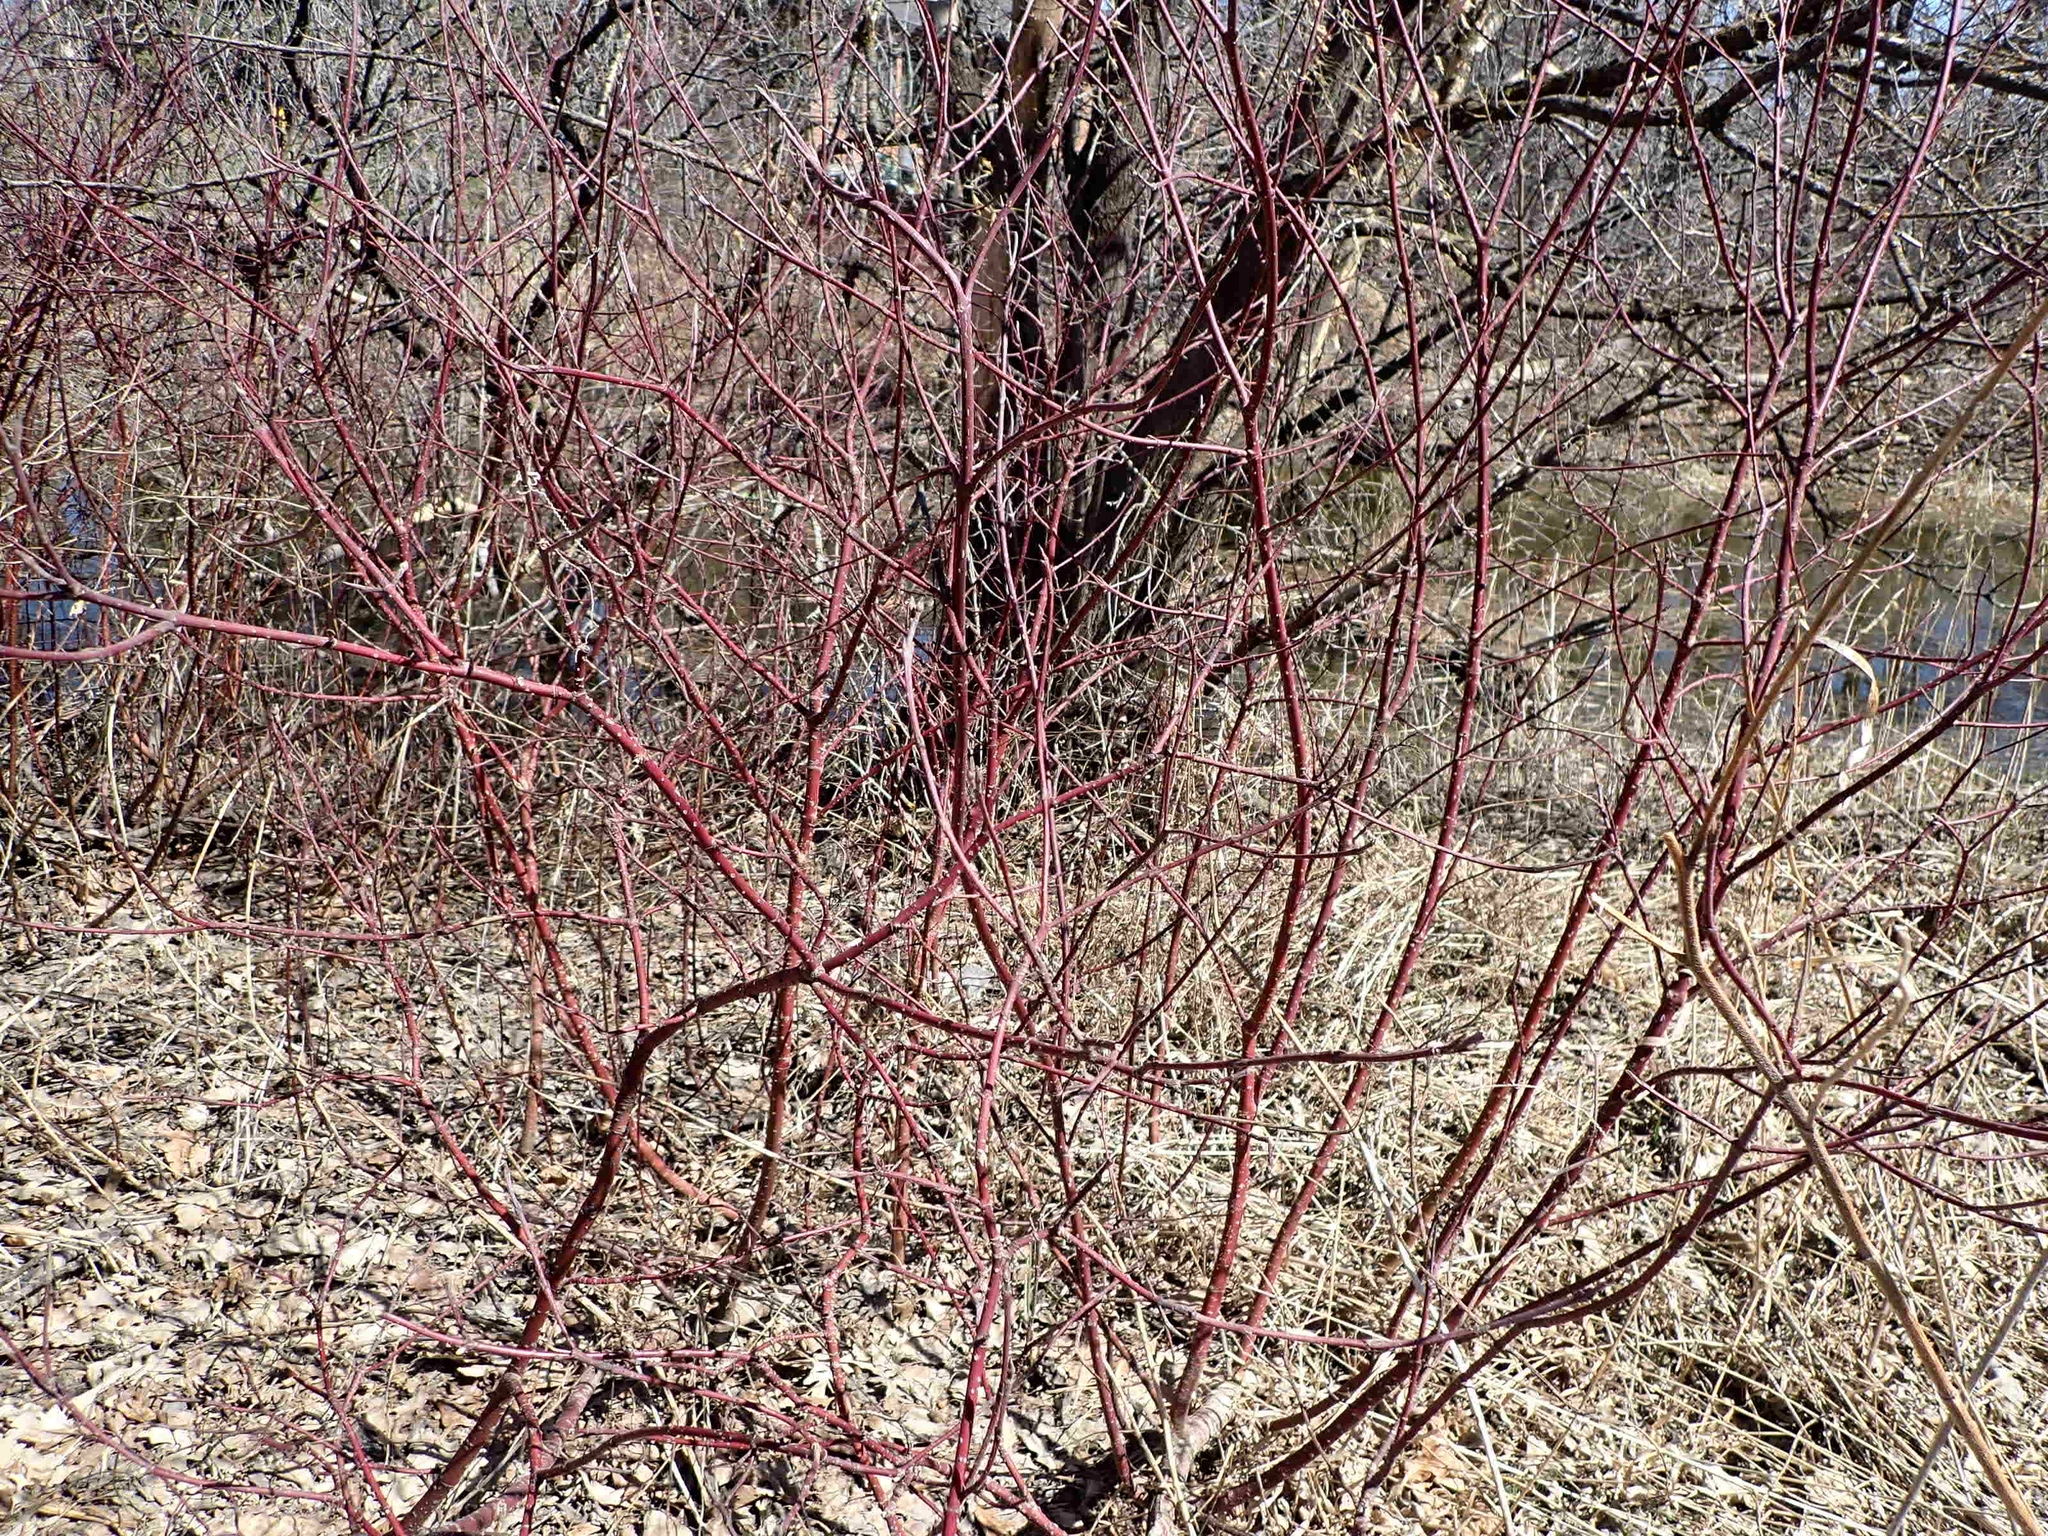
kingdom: Plantae
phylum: Tracheophyta
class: Magnoliopsida
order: Cornales
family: Cornaceae
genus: Cornus
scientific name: Cornus sericea
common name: Red-osier dogwood
